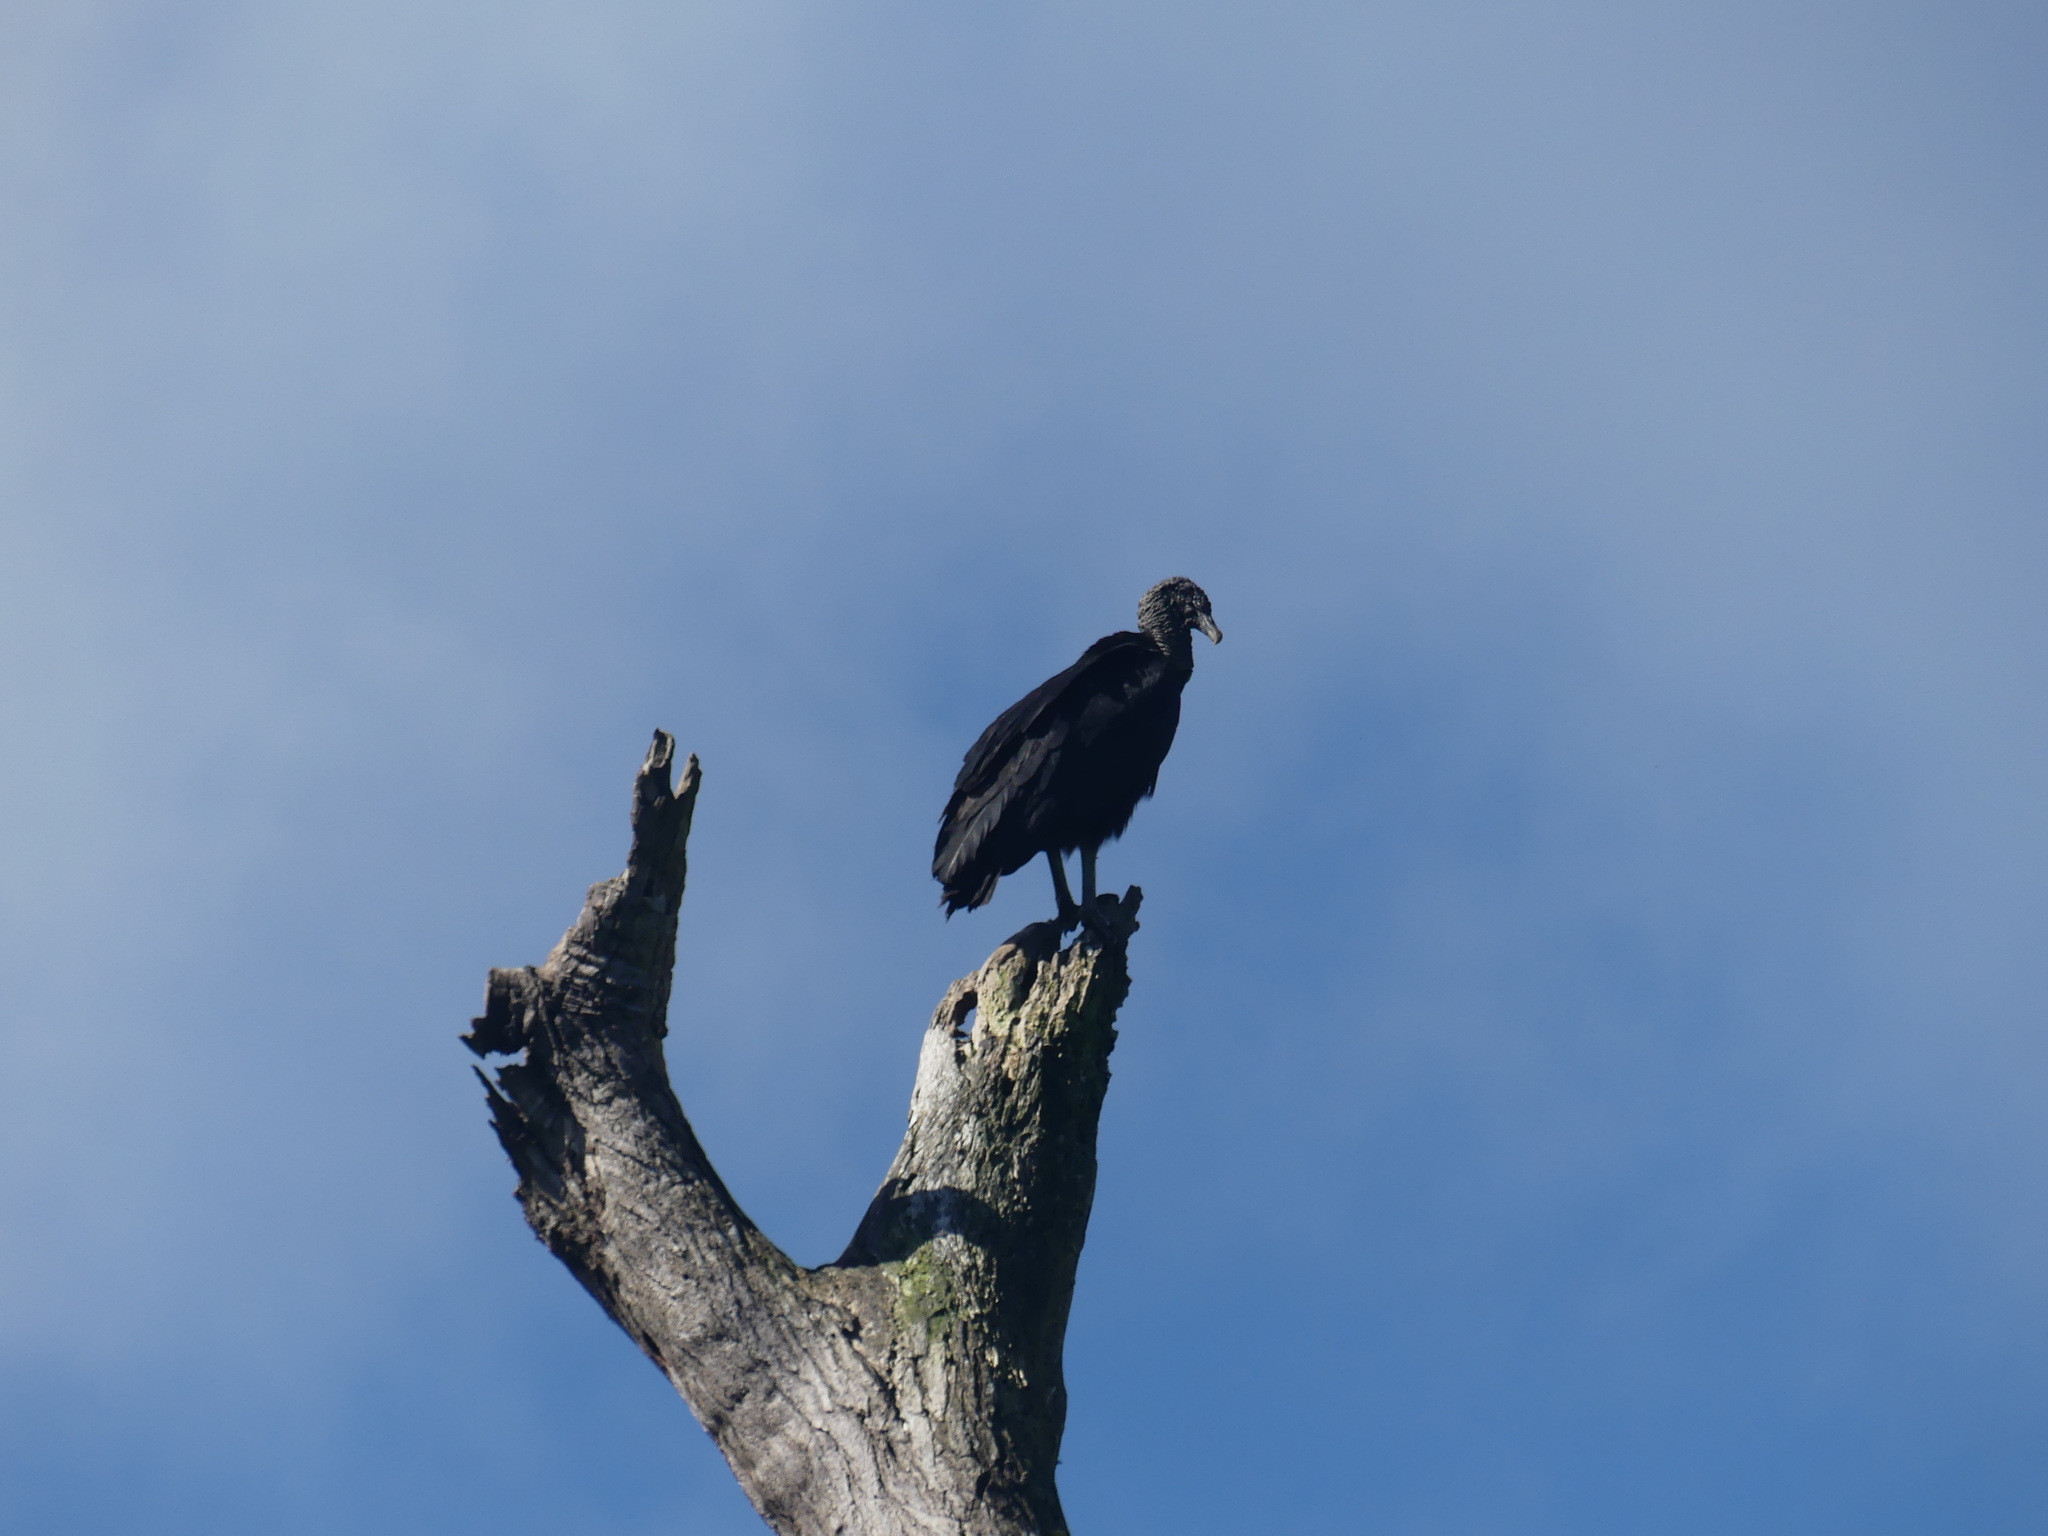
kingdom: Animalia
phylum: Chordata
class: Aves
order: Accipitriformes
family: Cathartidae
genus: Coragyps
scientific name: Coragyps atratus
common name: Black vulture
